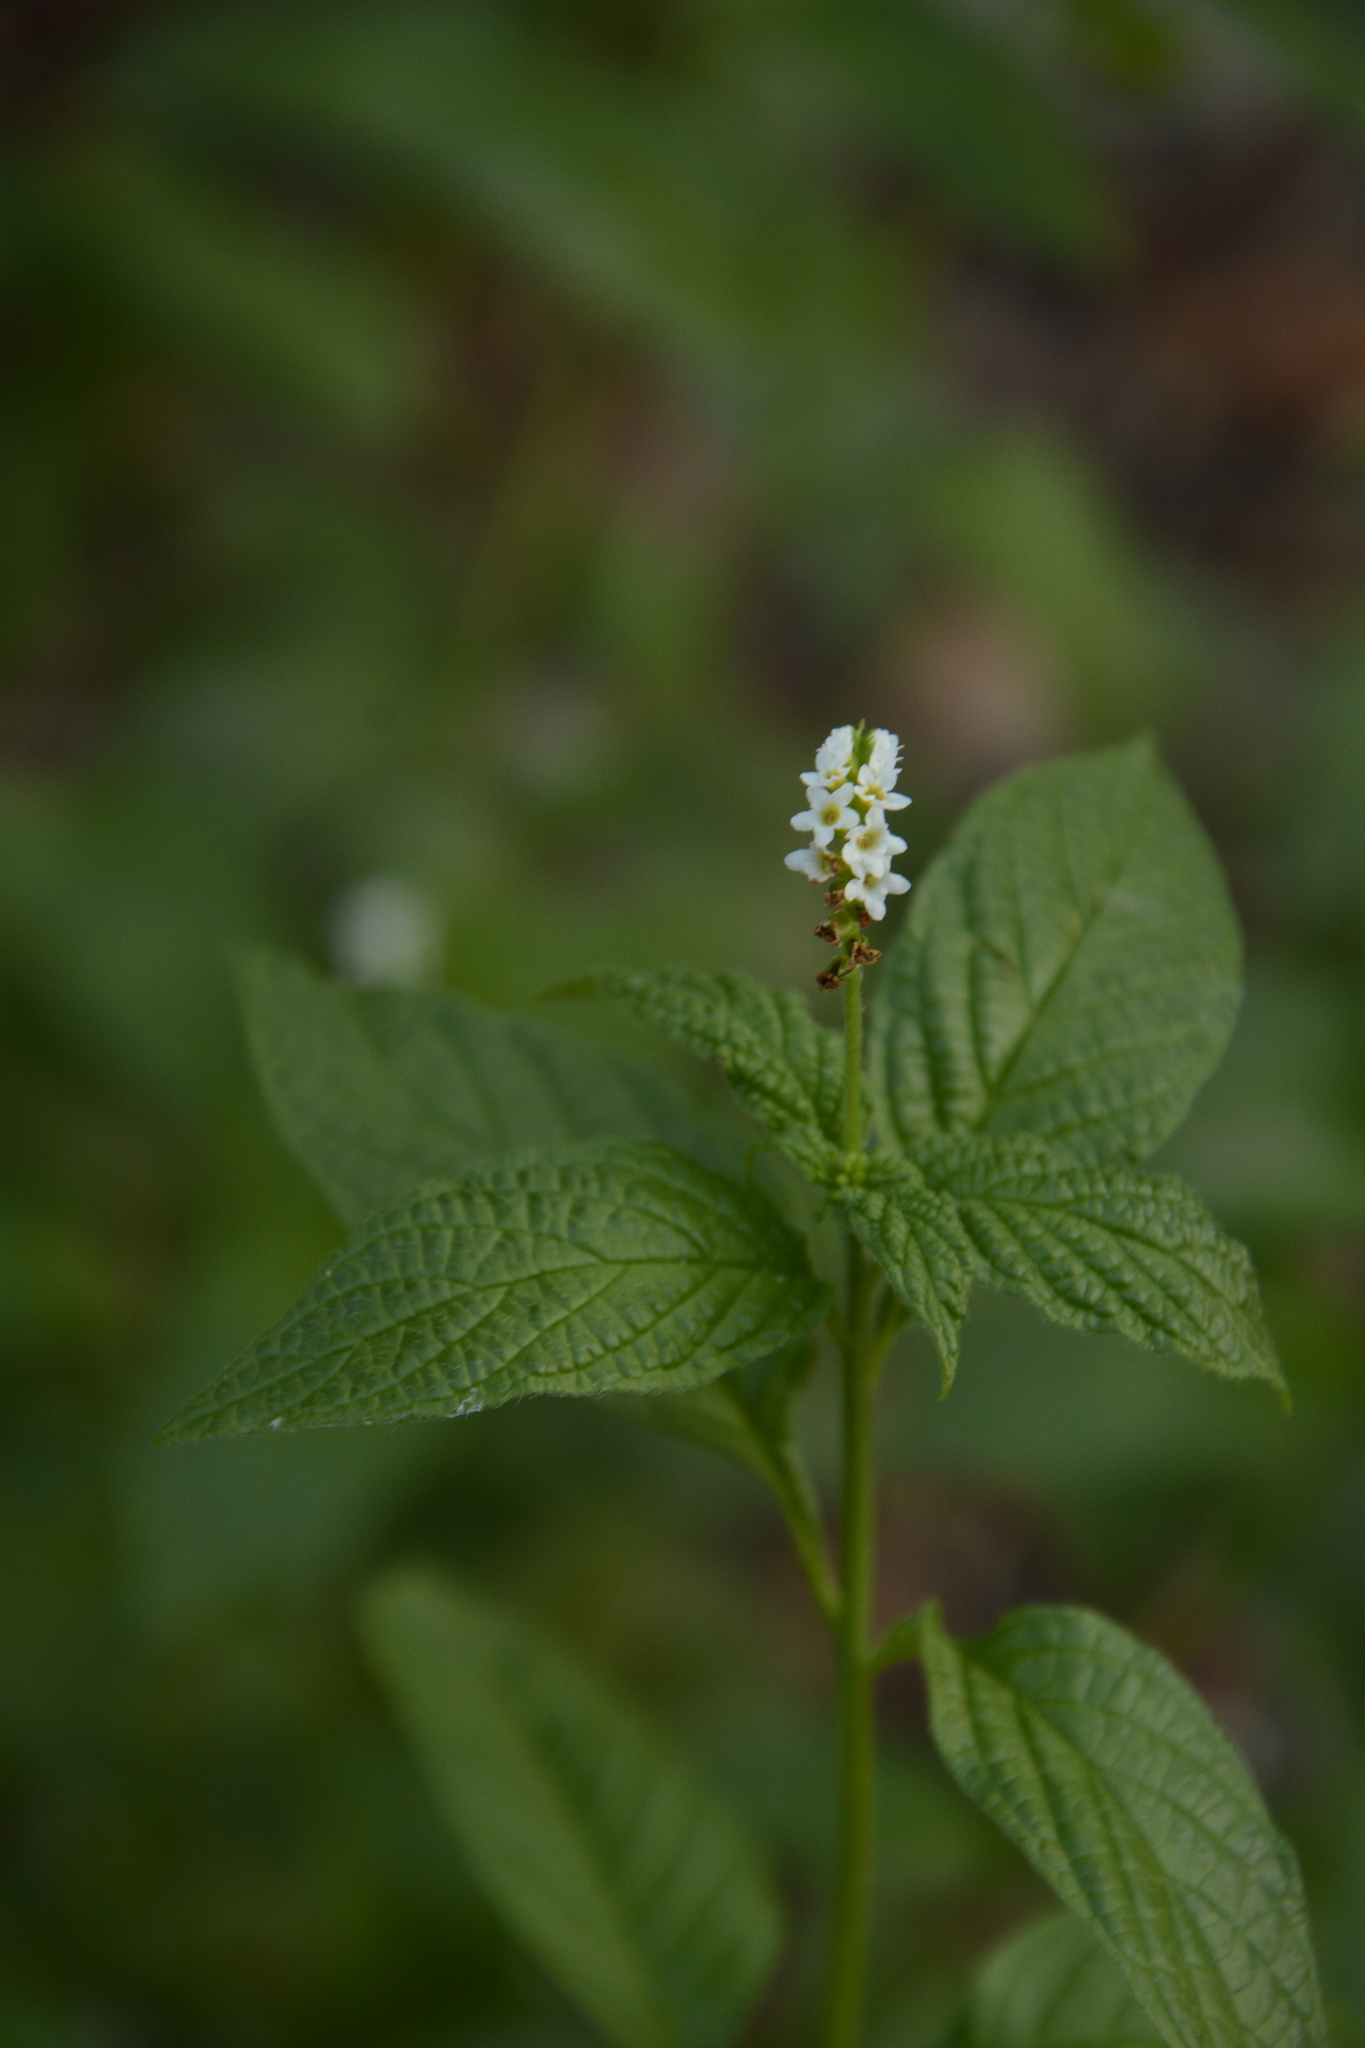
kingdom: Plantae
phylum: Tracheophyta
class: Magnoliopsida
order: Boraginales
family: Heliotropiaceae
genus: Heliotropium
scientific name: Heliotropium angiospermum
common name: Eye bright
